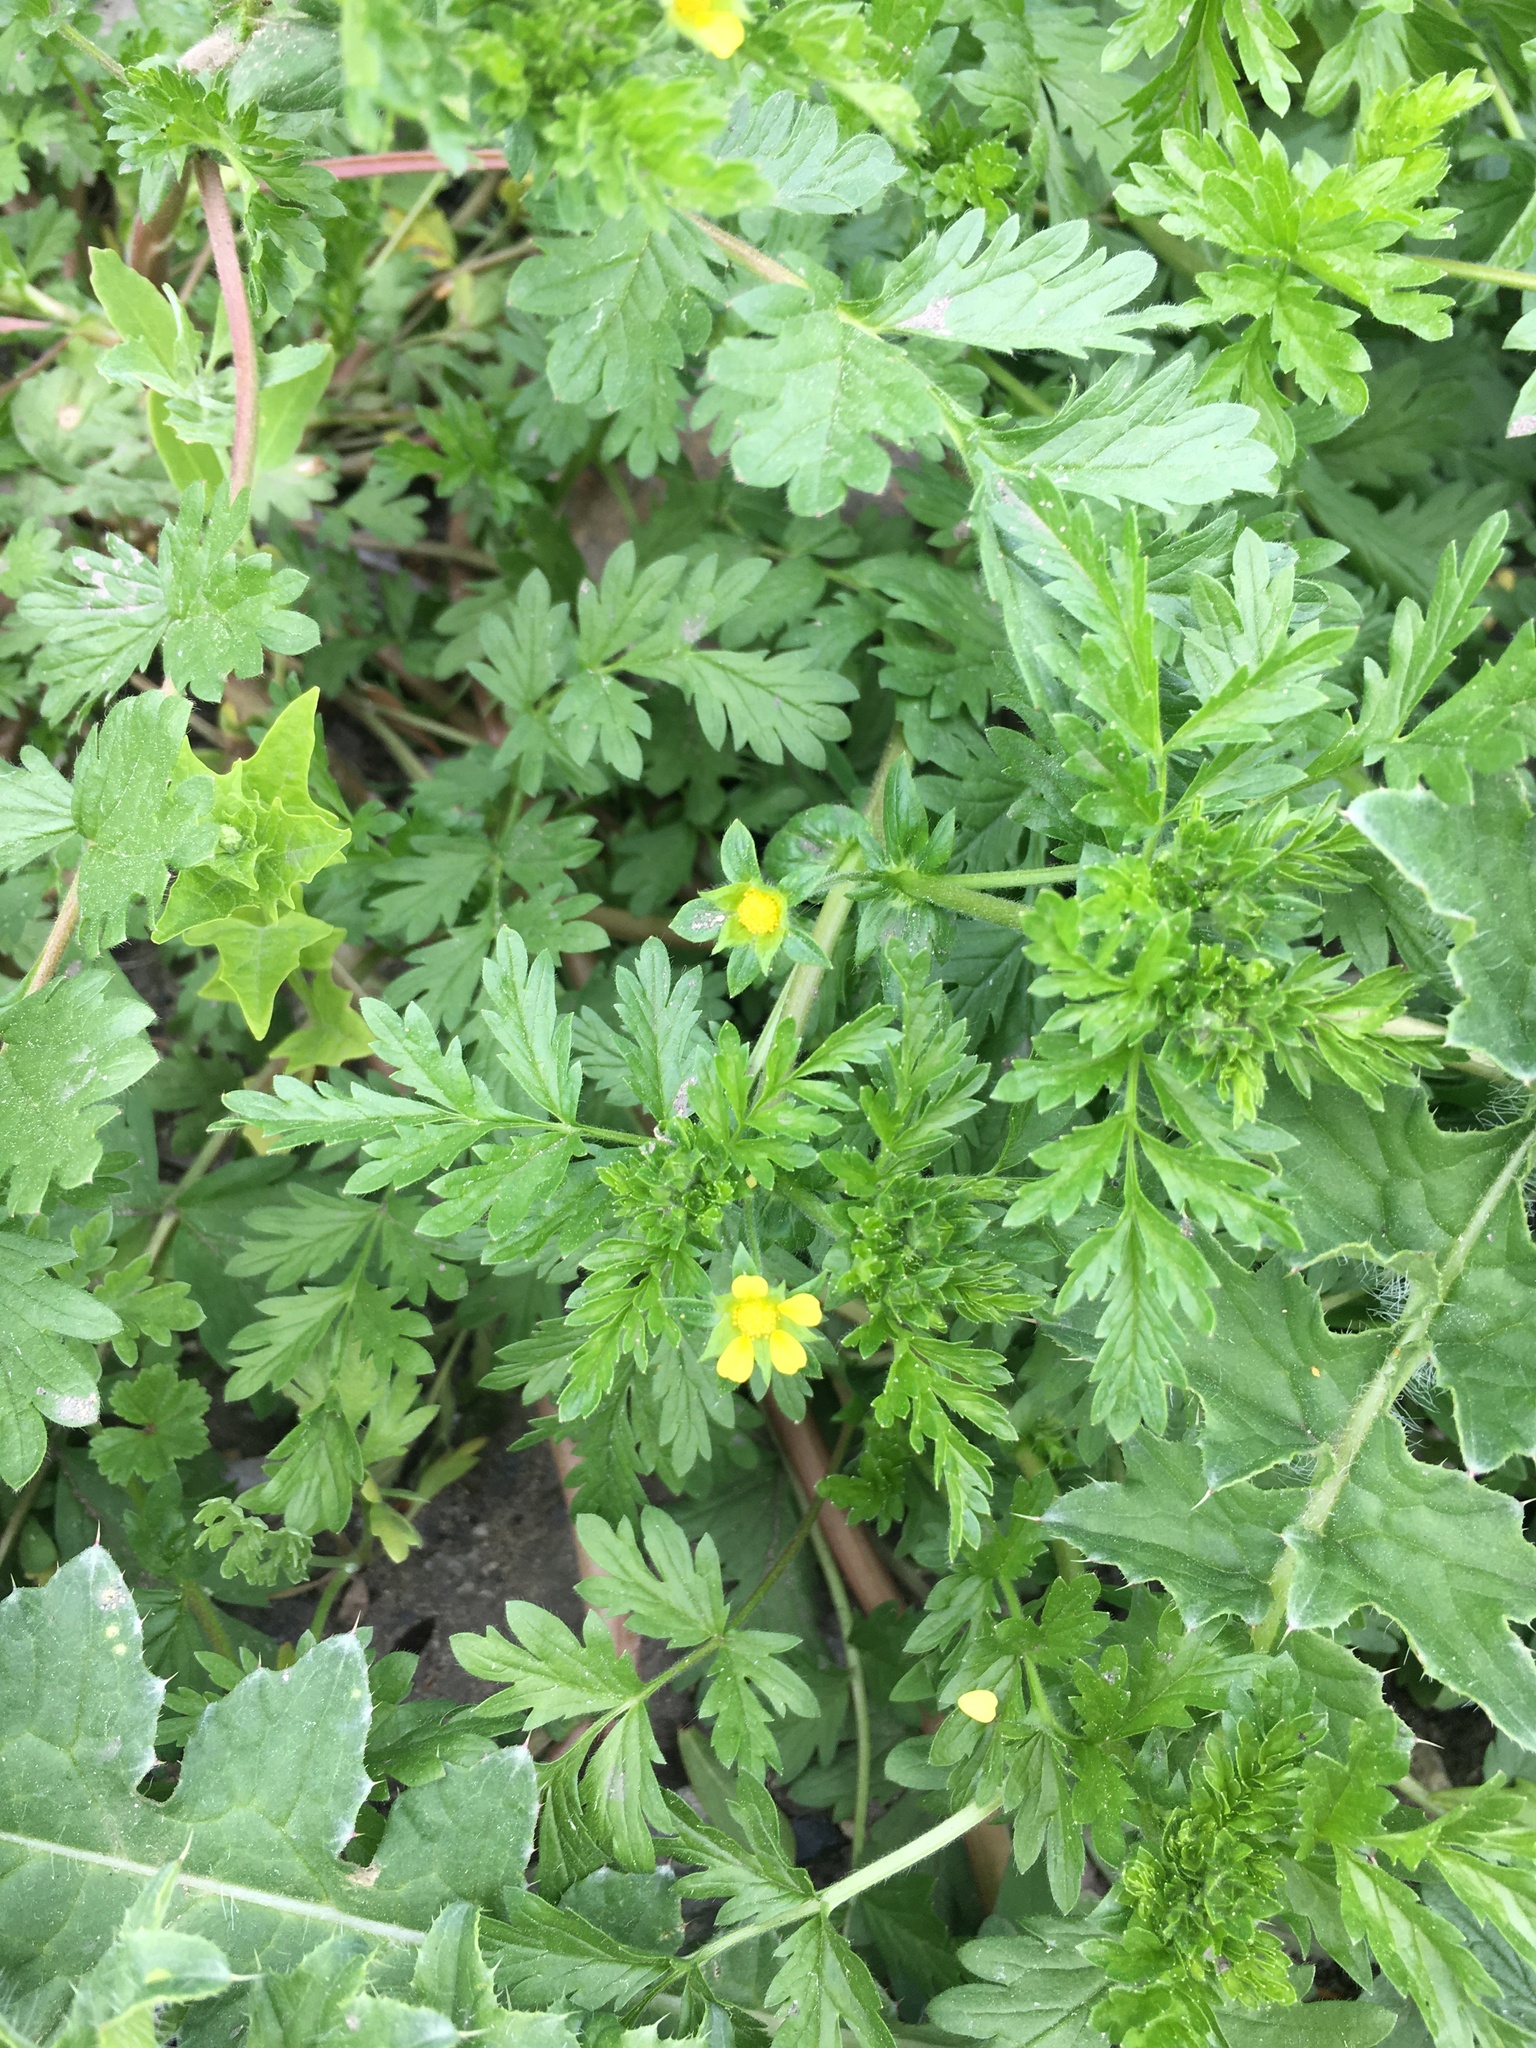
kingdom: Plantae
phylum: Tracheophyta
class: Magnoliopsida
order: Rosales
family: Rosaceae
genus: Potentilla
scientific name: Potentilla supina
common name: Prostrate cinquefoil
